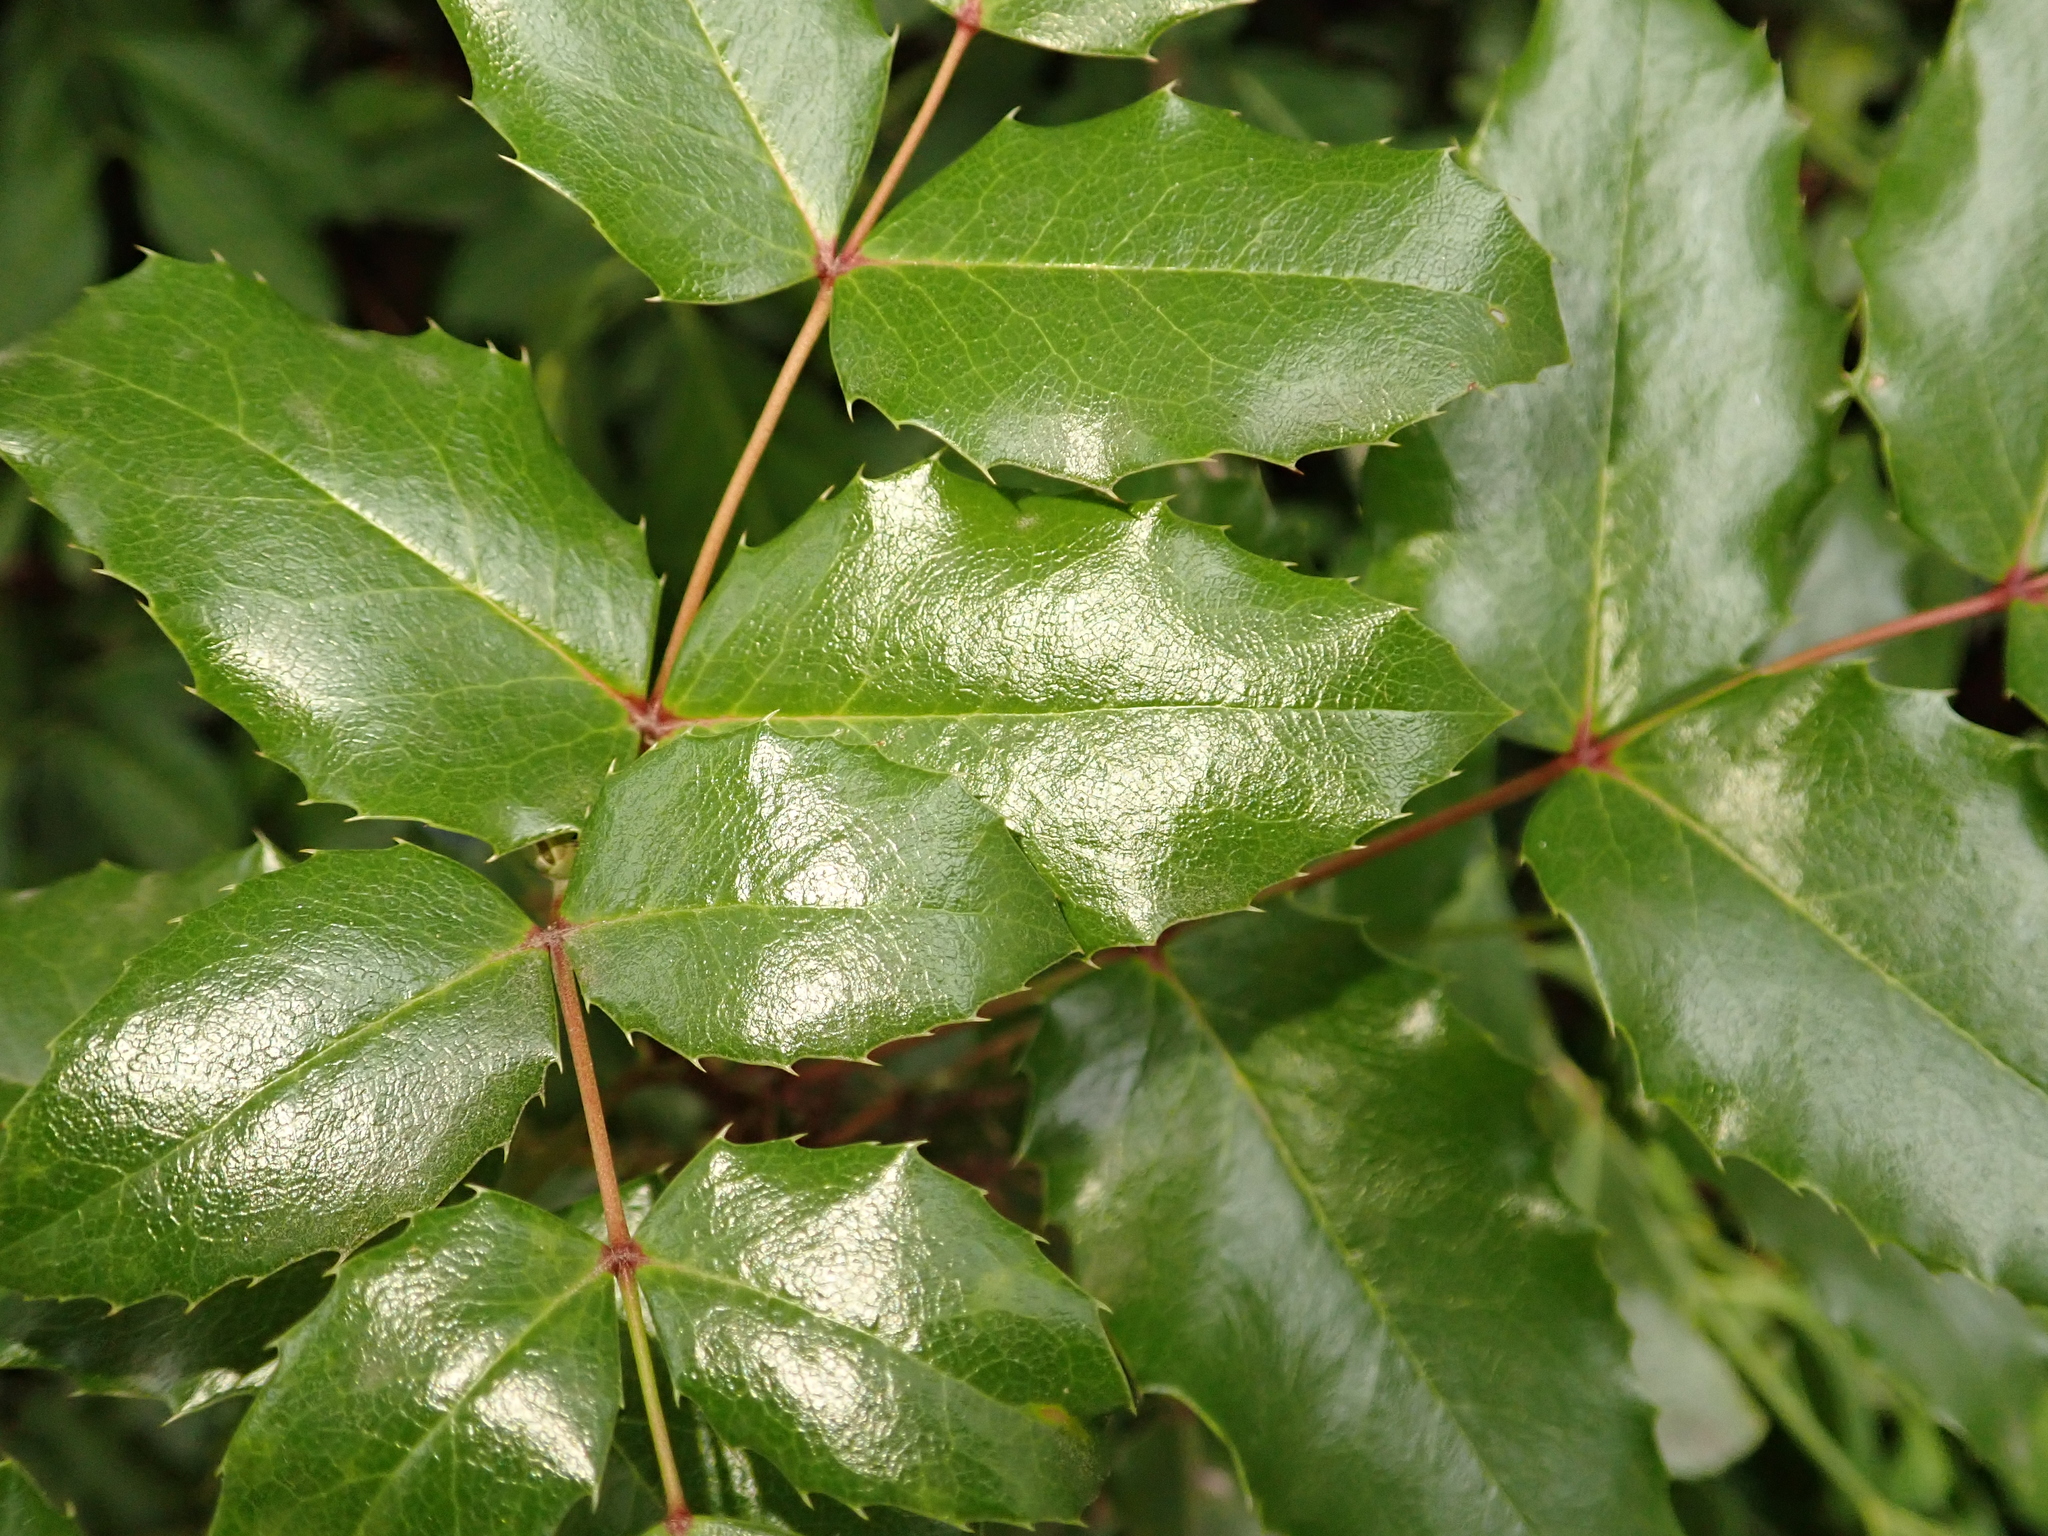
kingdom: Plantae
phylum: Tracheophyta
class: Magnoliopsida
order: Ranunculales
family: Berberidaceae
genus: Mahonia
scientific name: Mahonia aquifolium
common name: Oregon-grape
